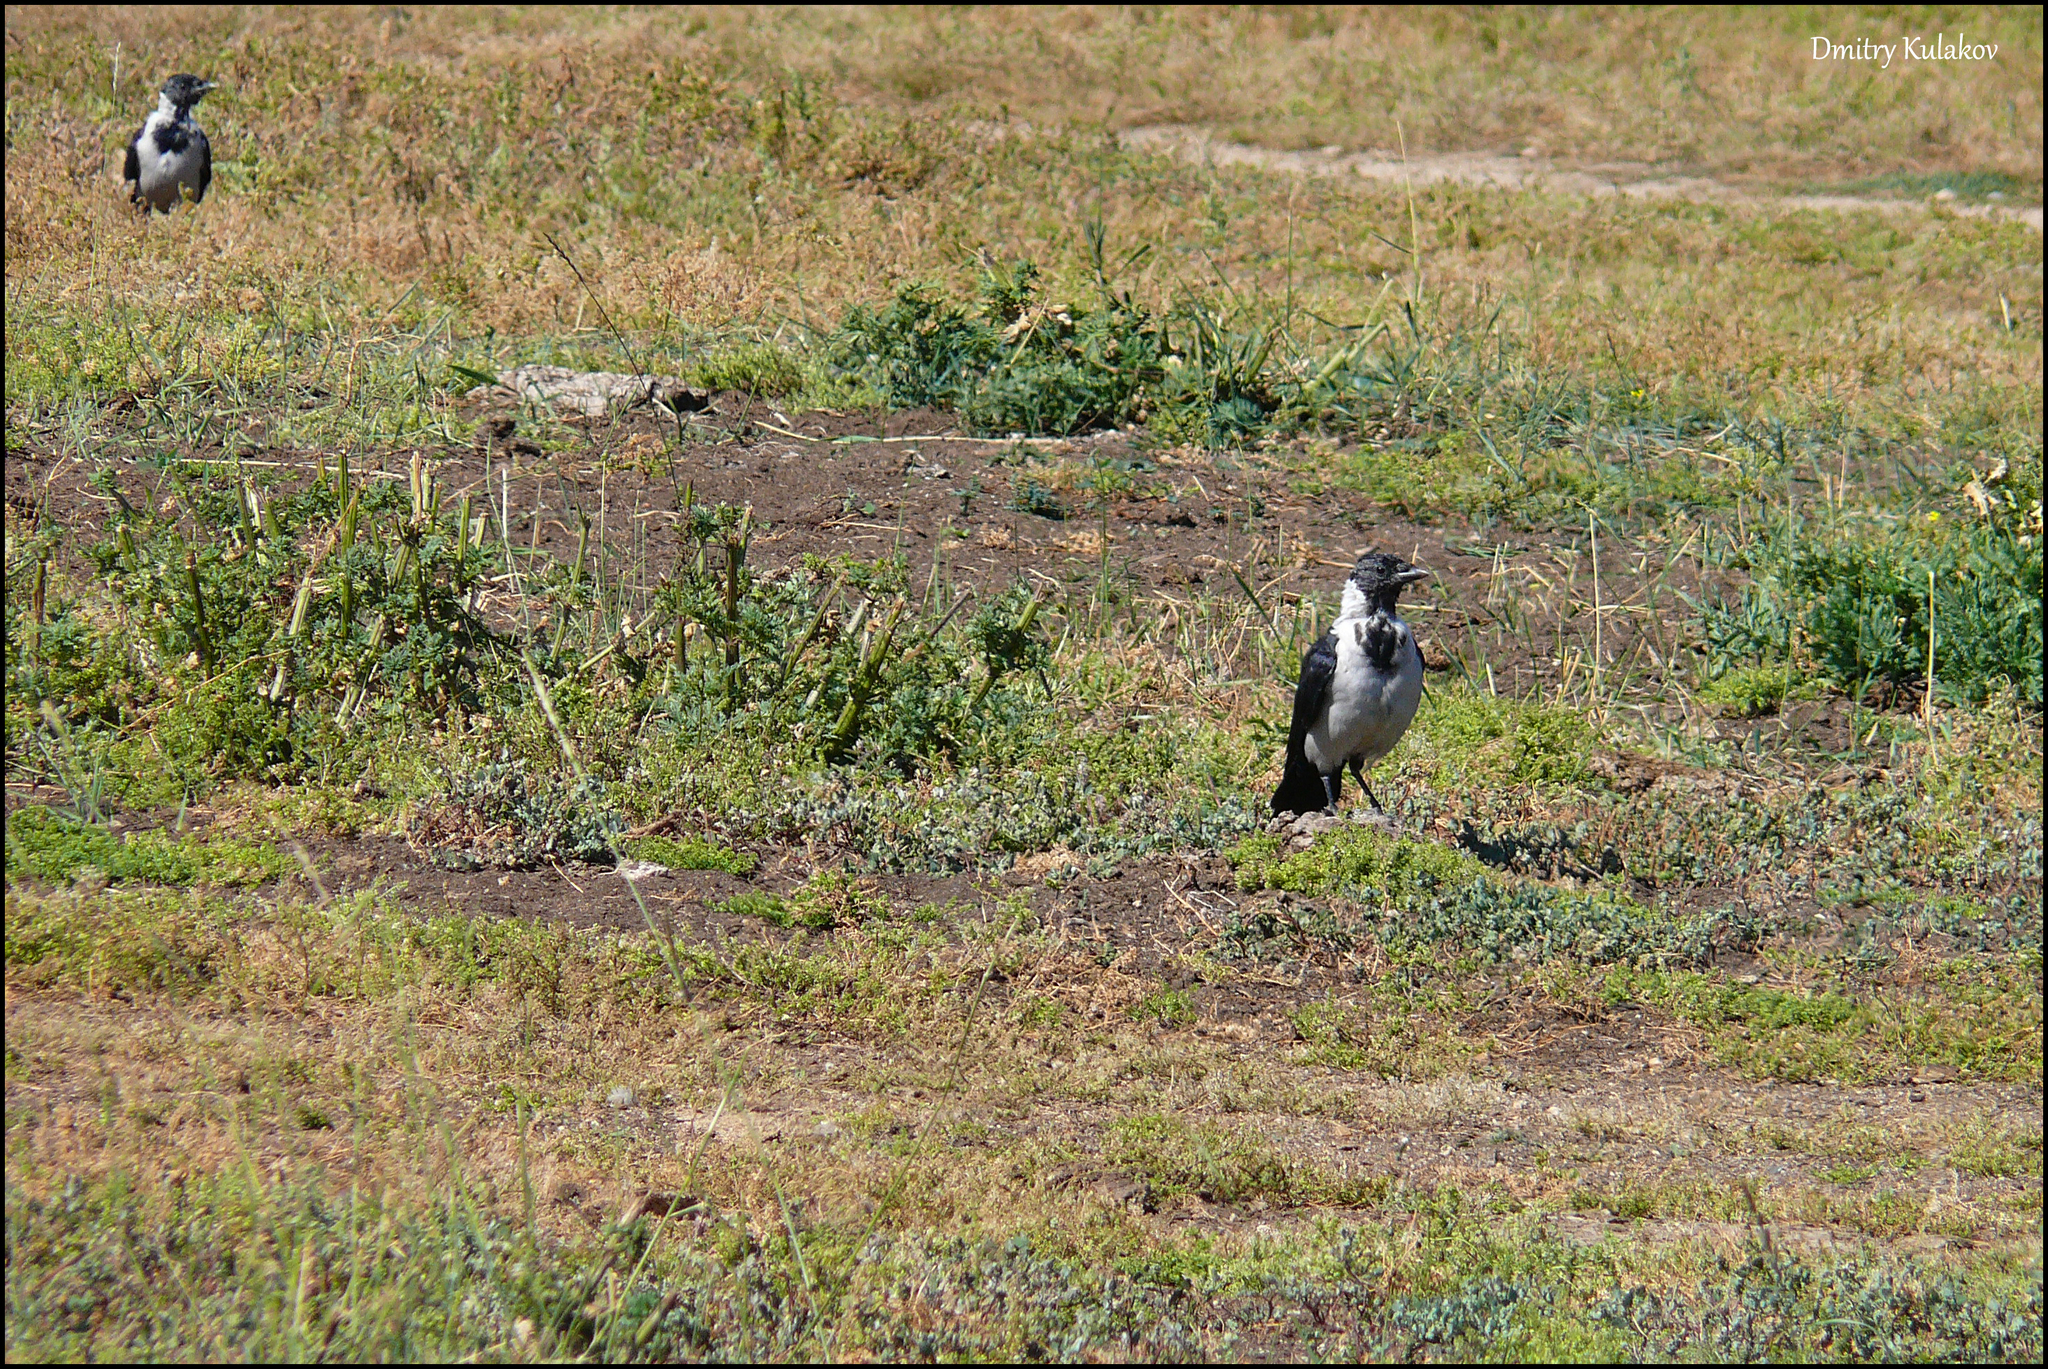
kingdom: Animalia
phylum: Chordata
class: Aves
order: Passeriformes
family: Corvidae
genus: Coloeus
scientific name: Coloeus dauuricus
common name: Daurian jackdaw
